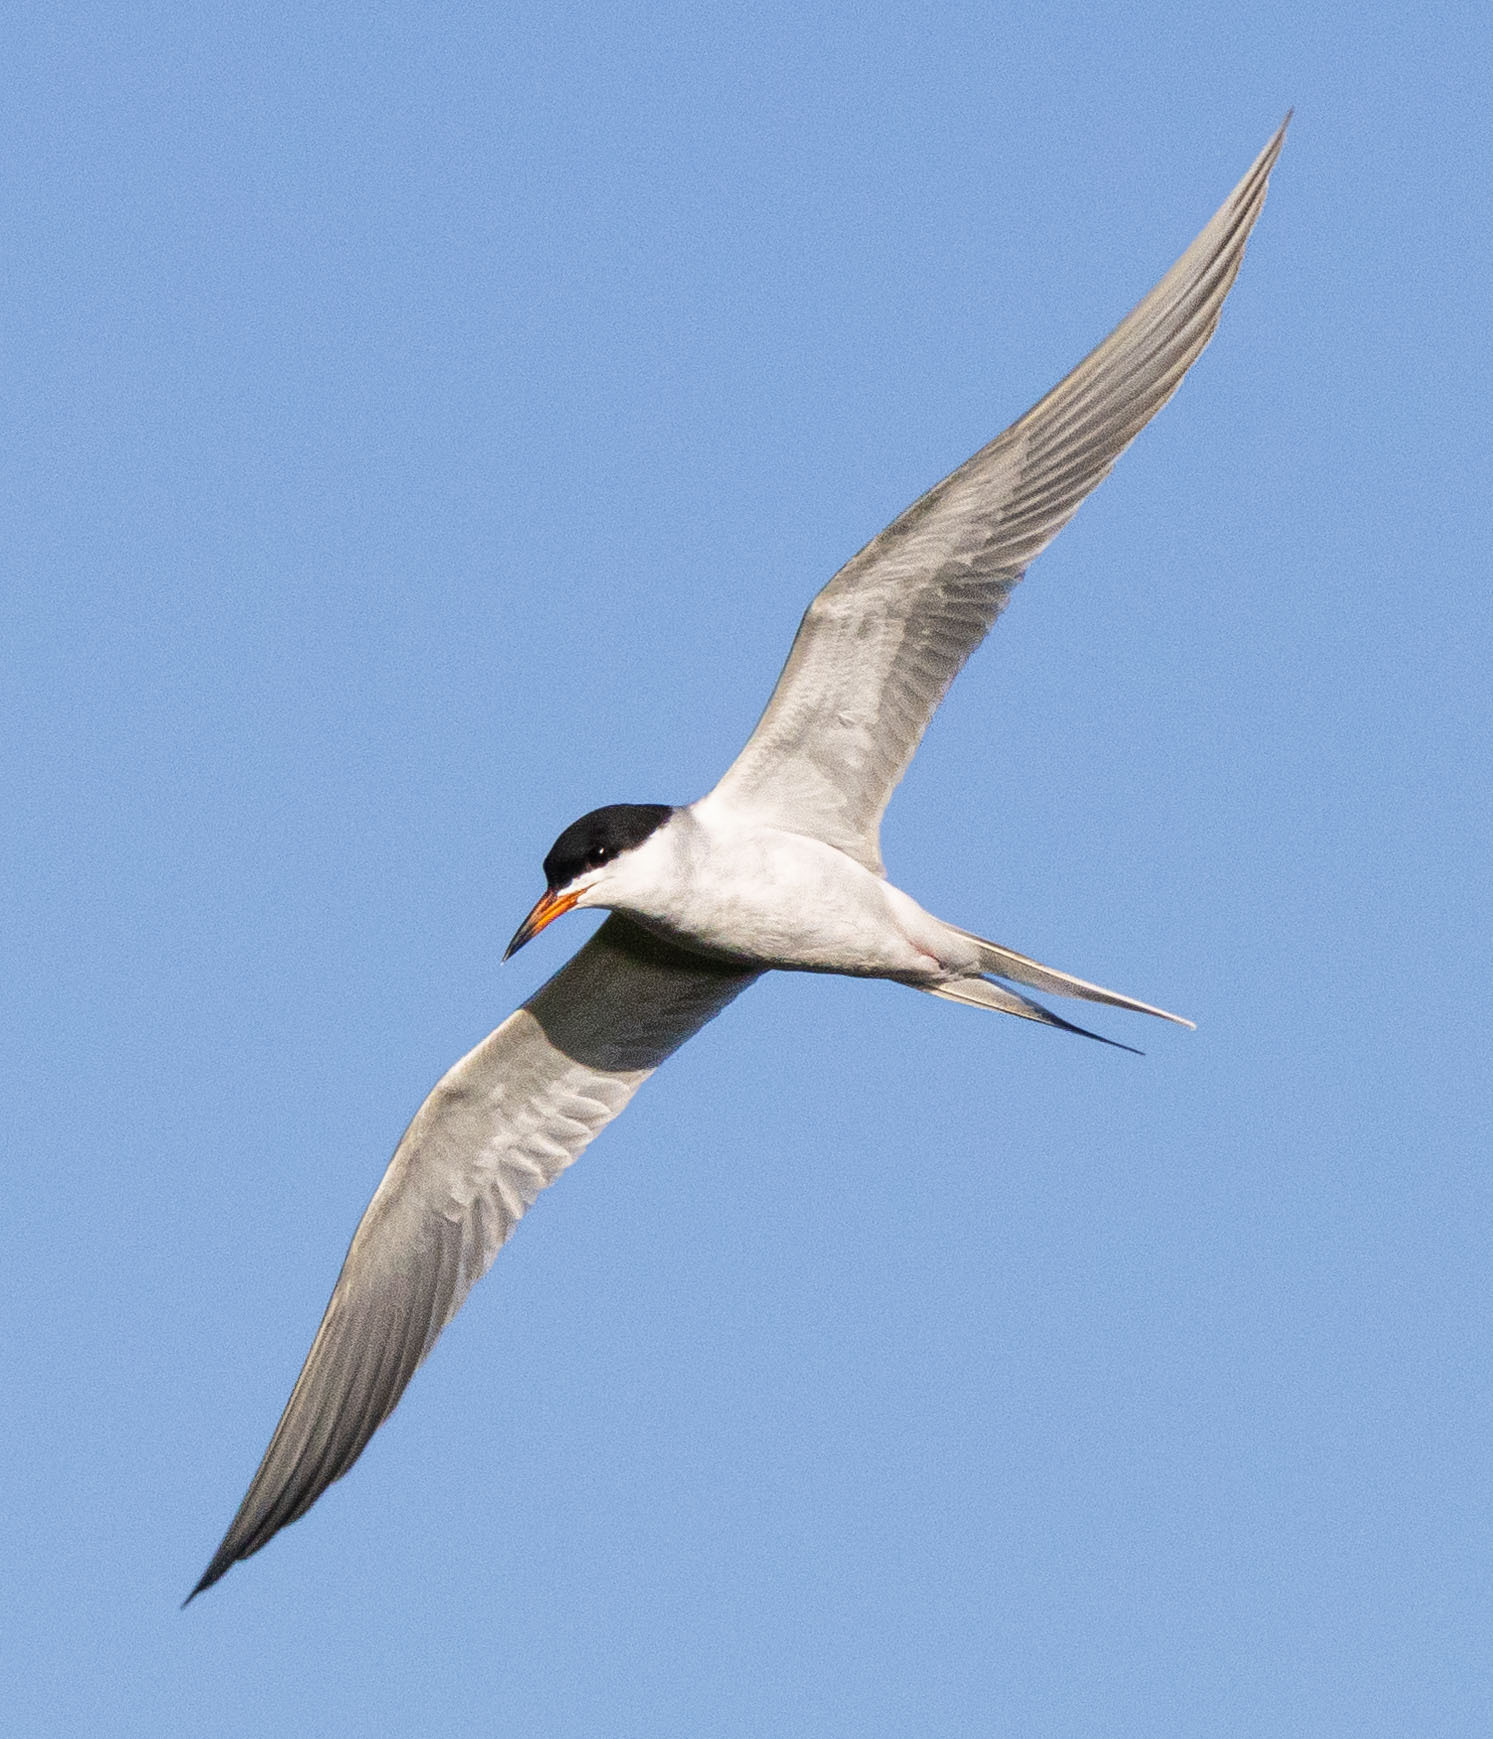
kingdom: Animalia
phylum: Chordata
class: Aves
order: Charadriiformes
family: Laridae
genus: Sterna
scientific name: Sterna forsteri
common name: Forster's tern
